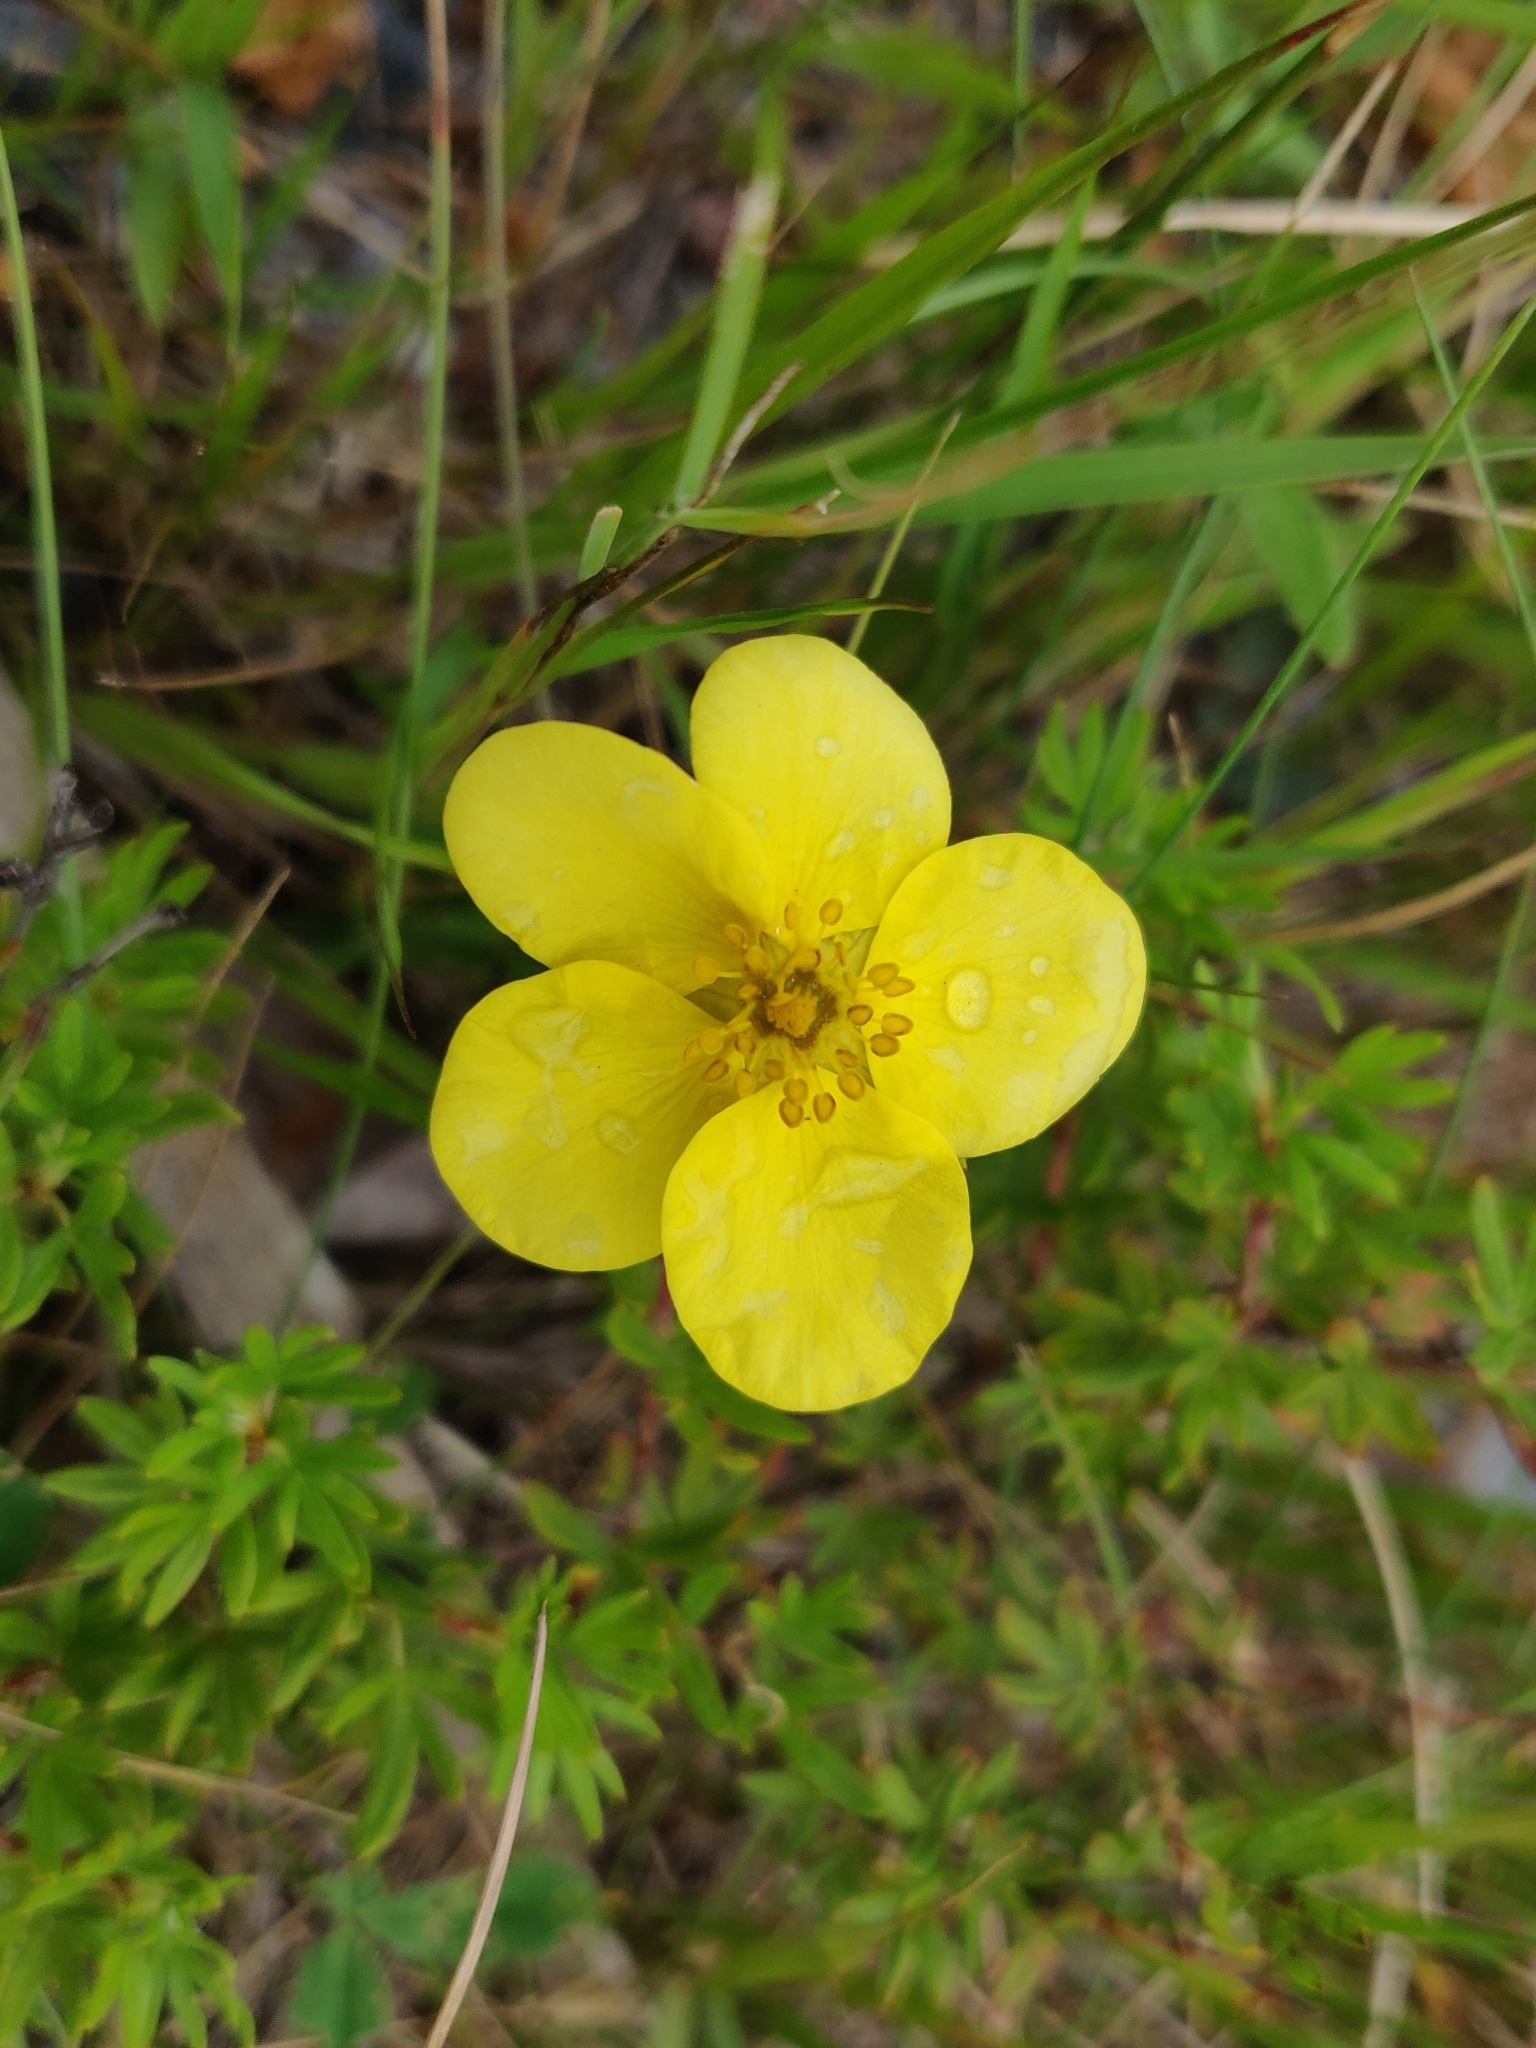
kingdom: Plantae
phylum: Tracheophyta
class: Magnoliopsida
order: Rosales
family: Rosaceae
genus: Dasiphora
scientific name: Dasiphora fruticosa
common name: Shrubby cinquefoil
